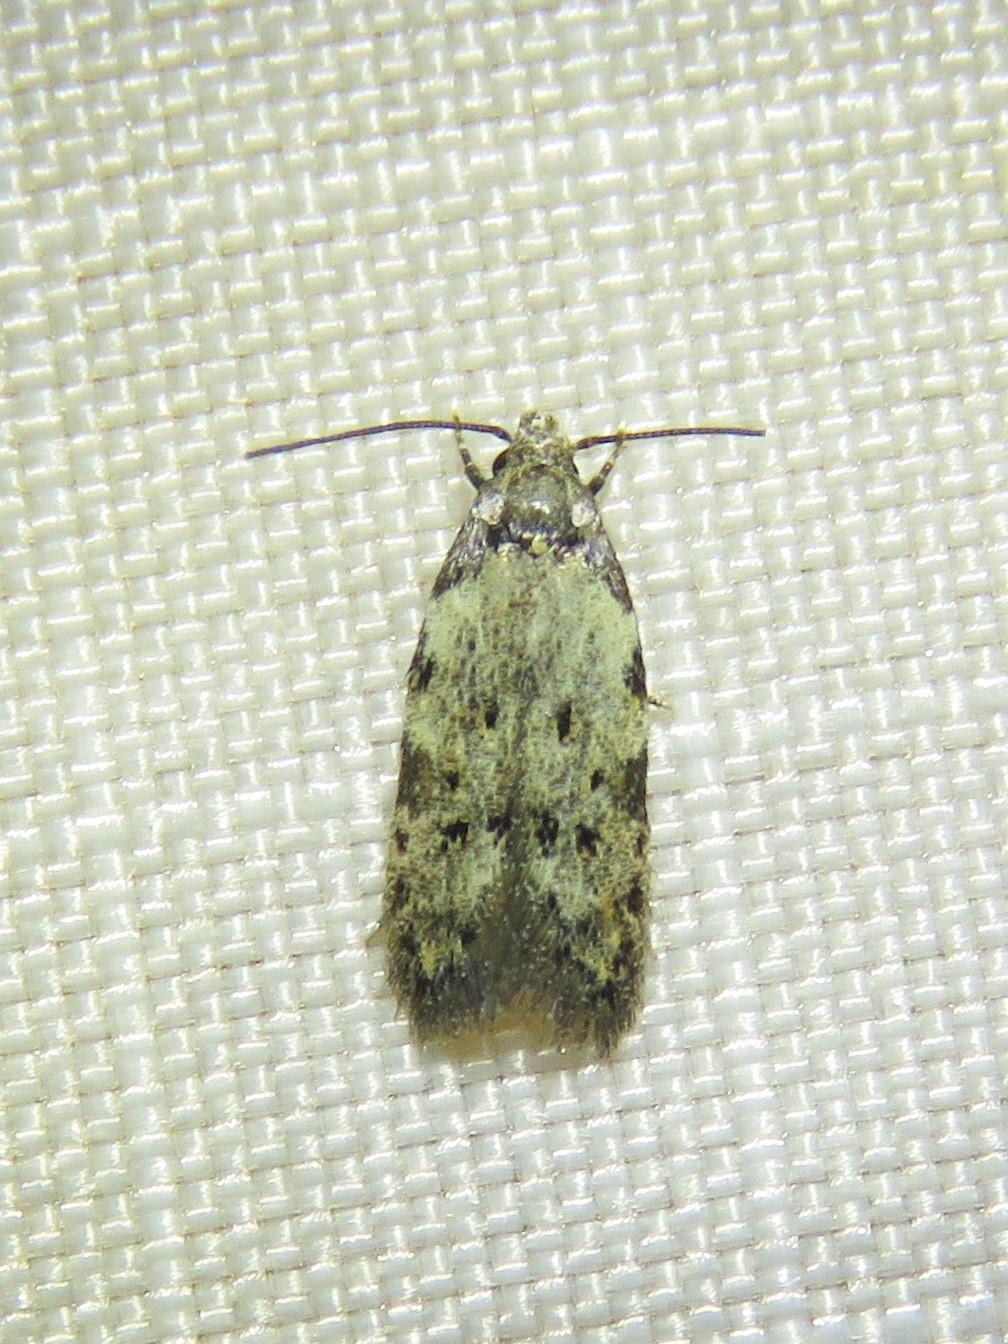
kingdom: Animalia
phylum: Arthropoda
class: Insecta
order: Lepidoptera
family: Autostichidae
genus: Taygete
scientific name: Taygete attributella
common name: Triangle-marked twirler moth
